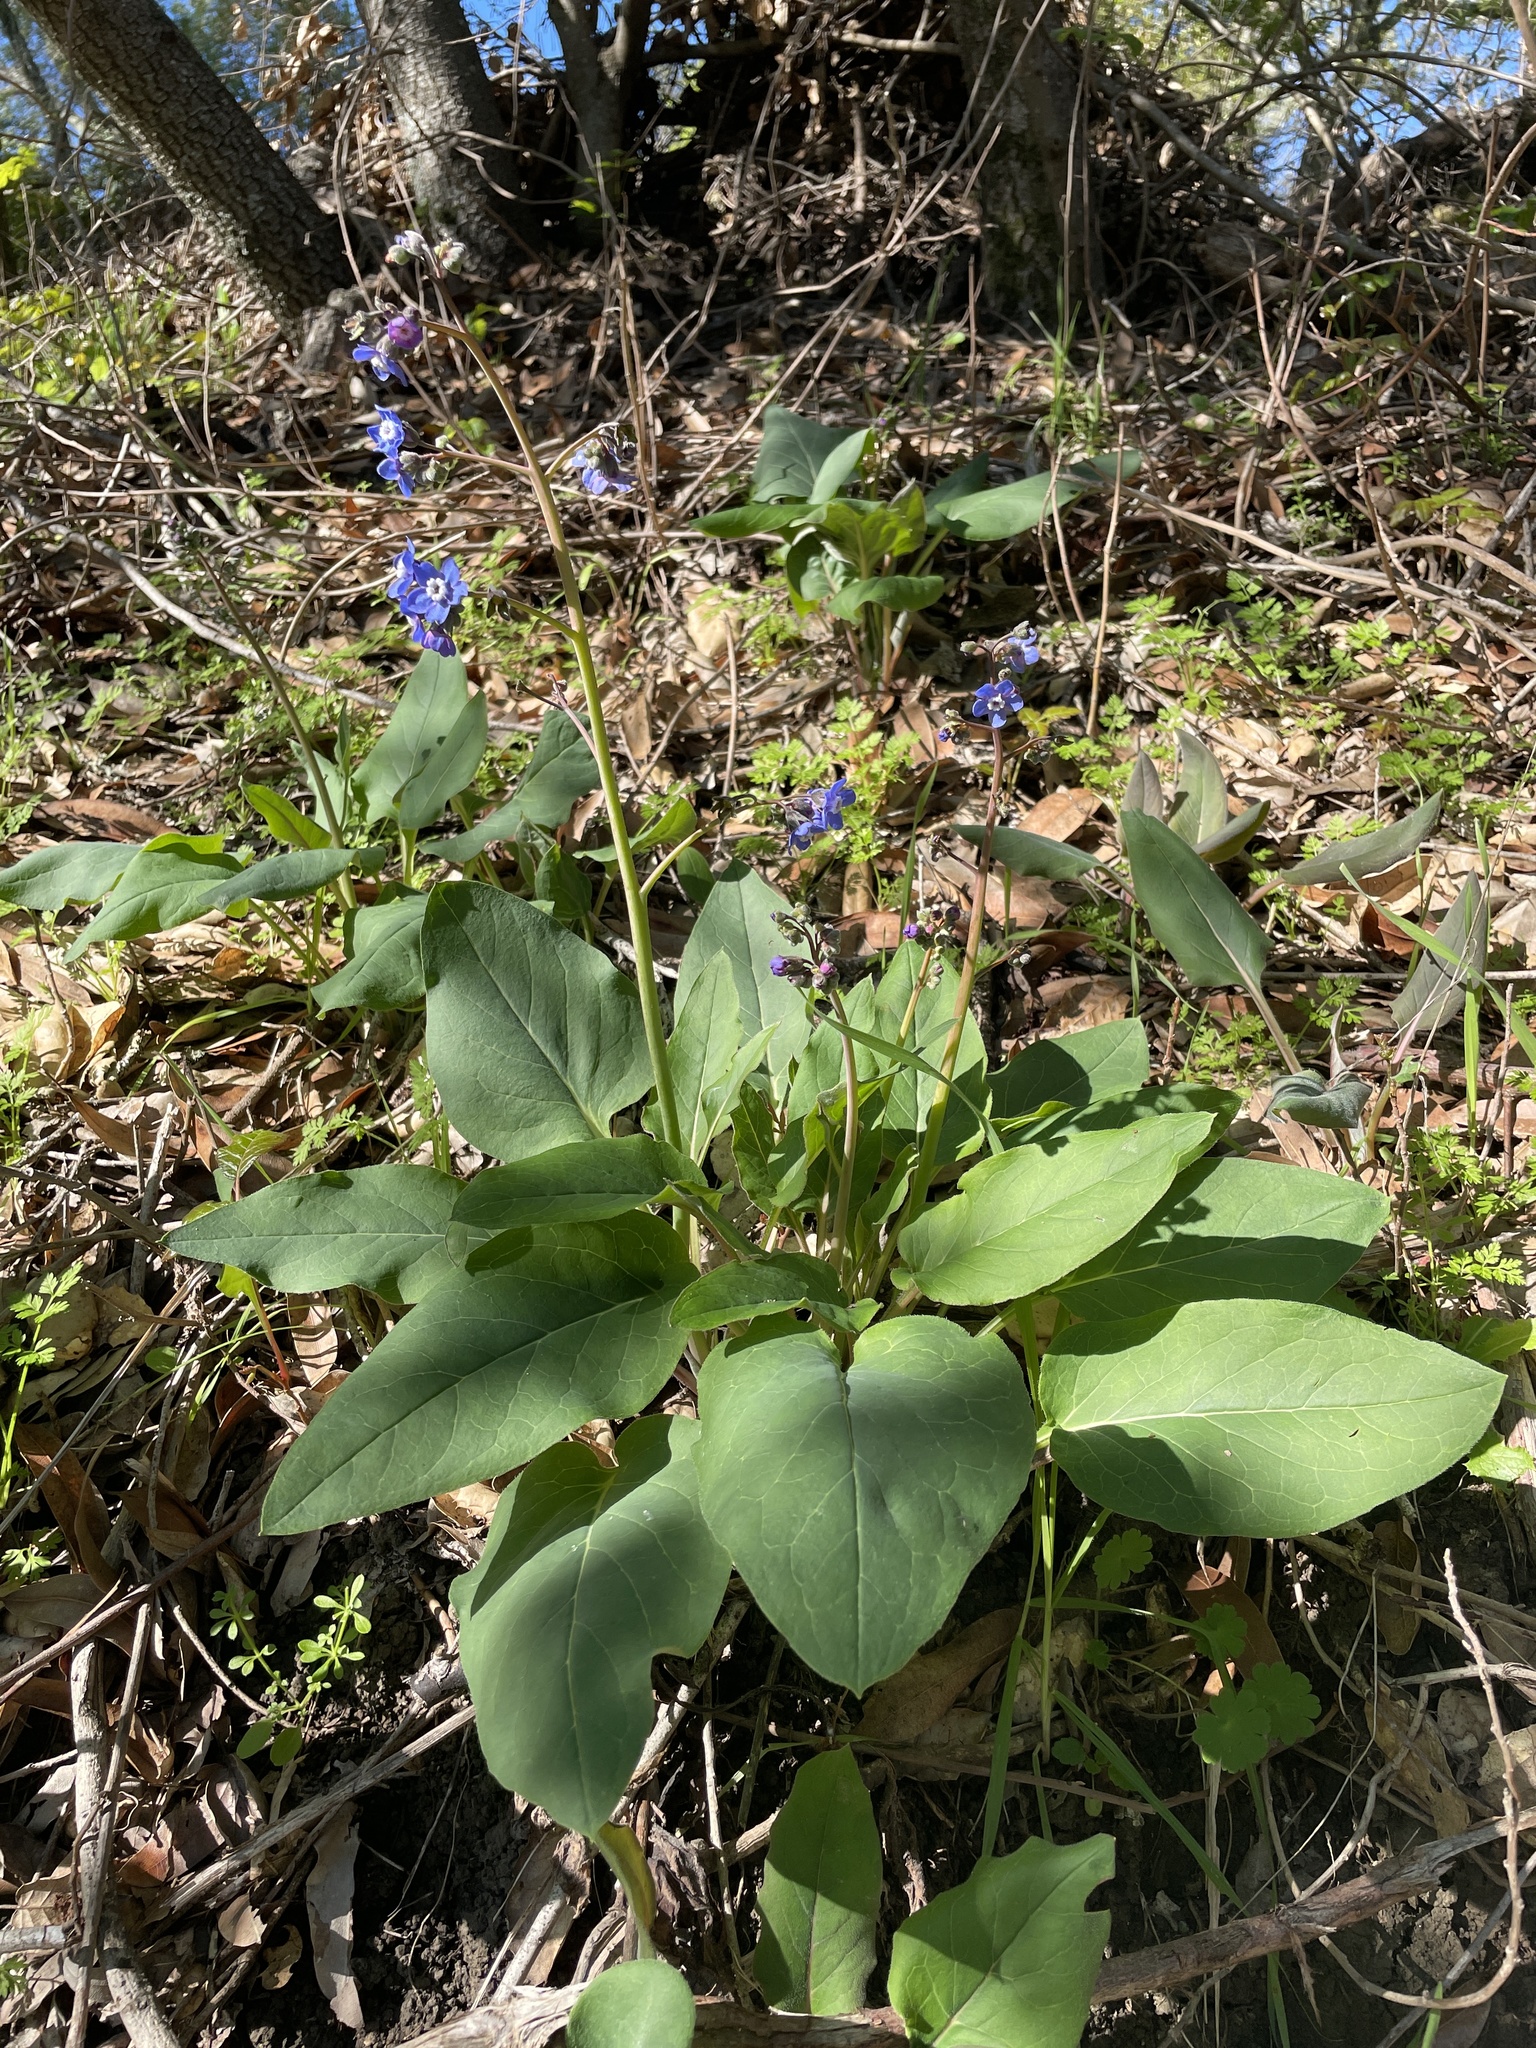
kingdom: Plantae
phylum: Tracheophyta
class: Magnoliopsida
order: Boraginales
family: Boraginaceae
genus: Adelinia
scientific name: Adelinia grande
